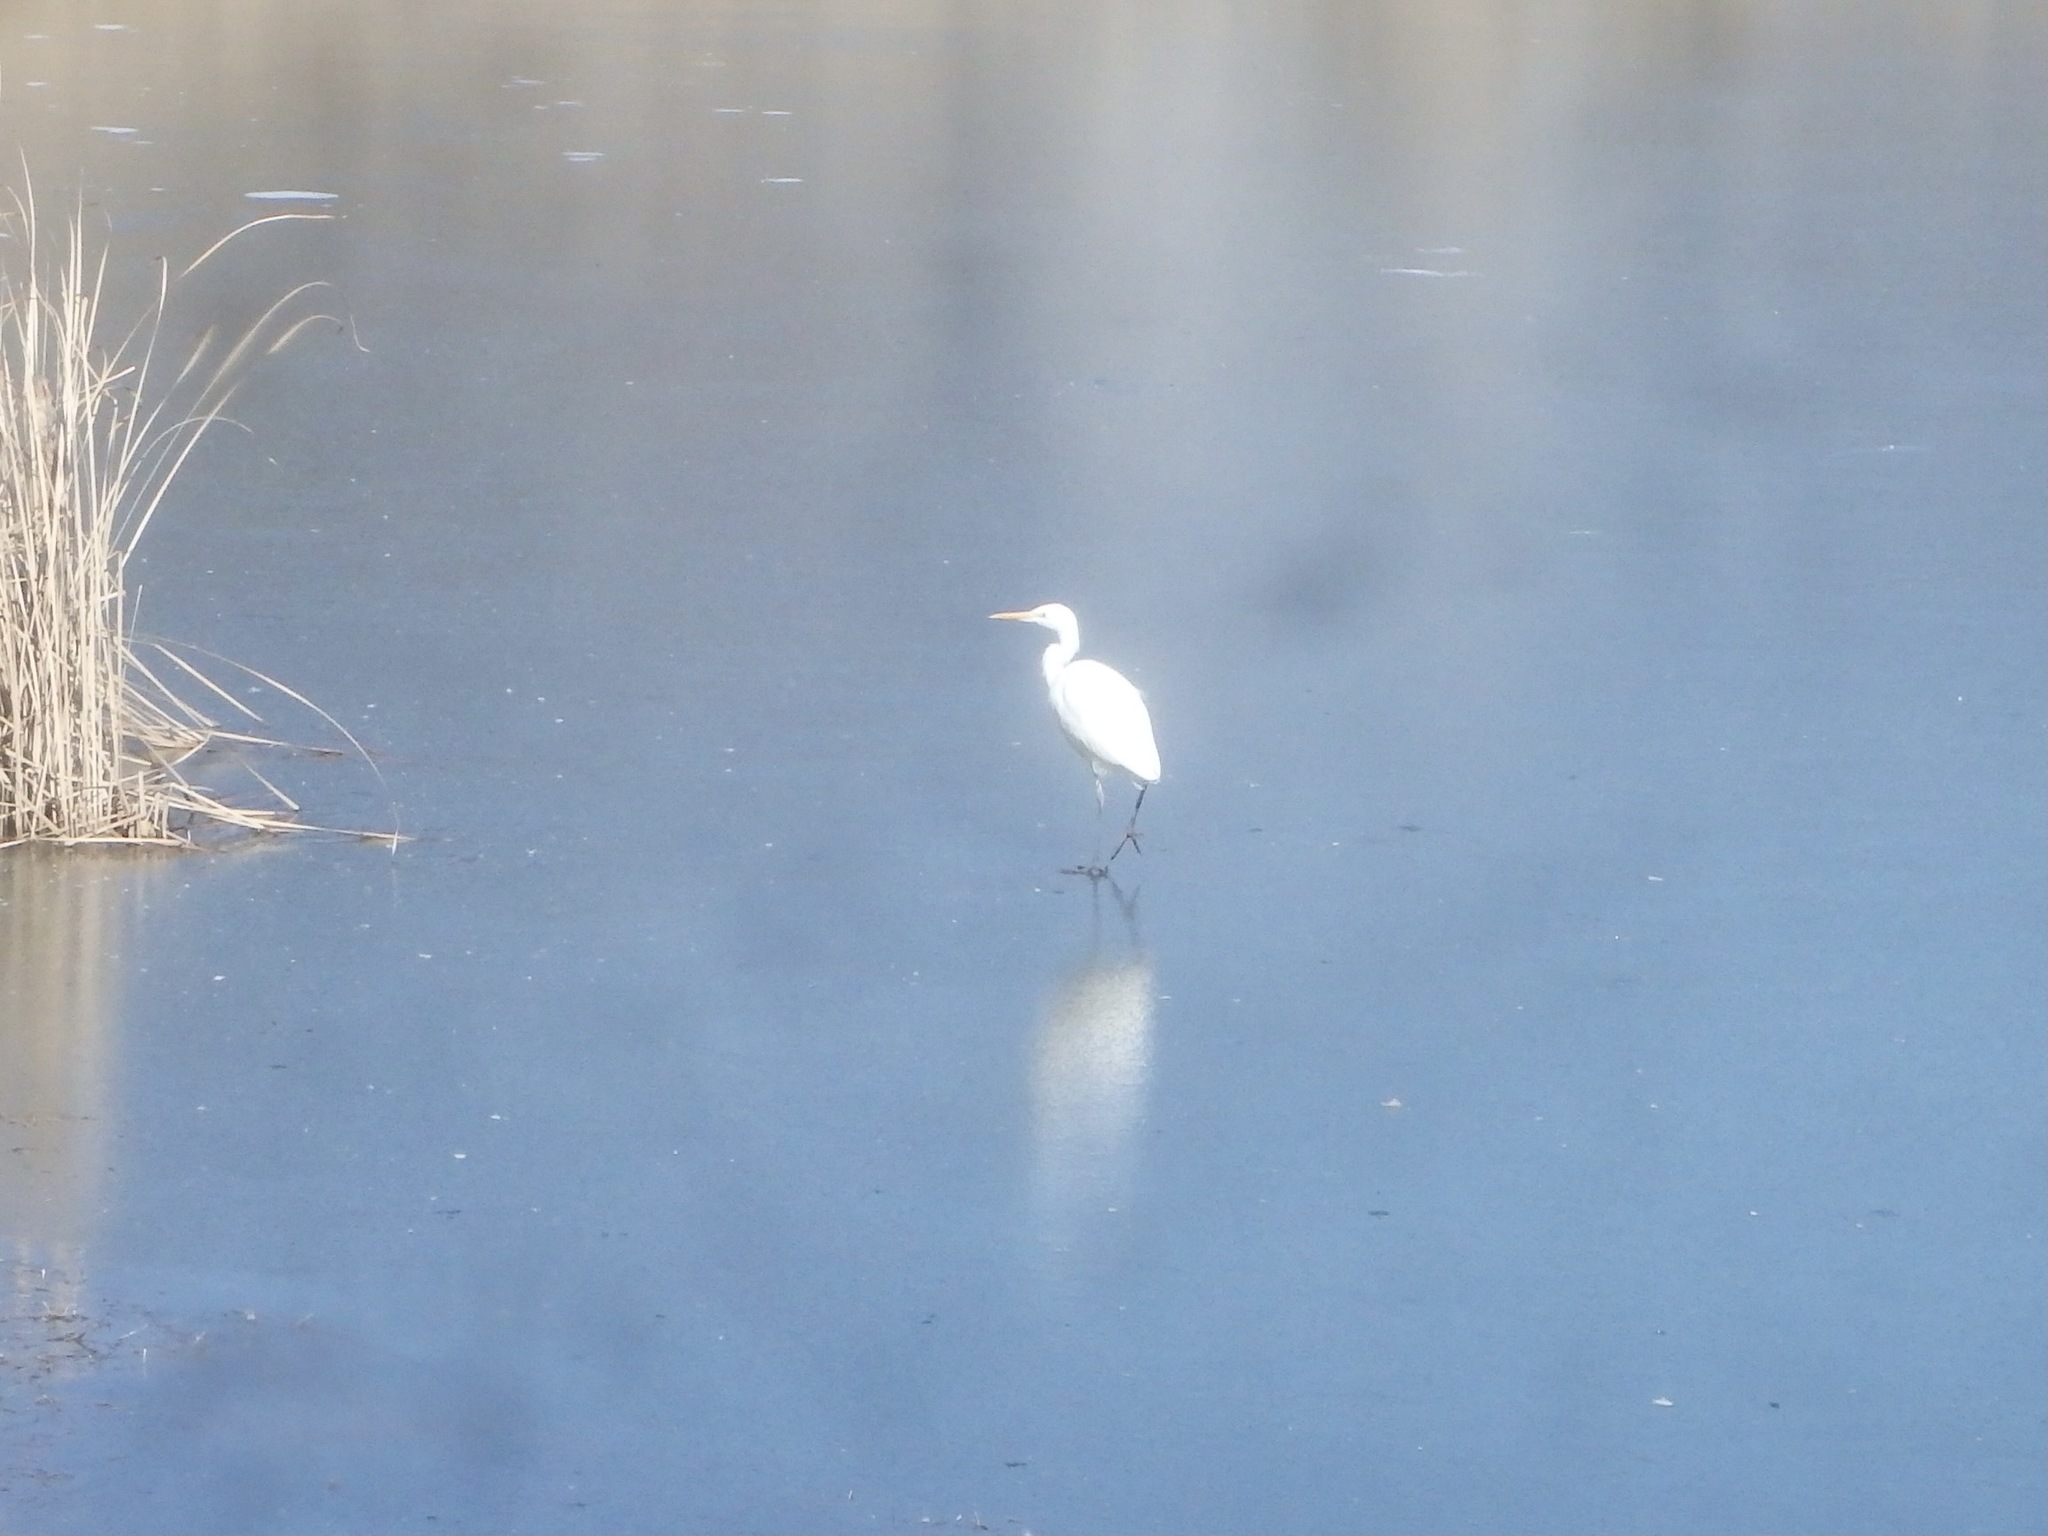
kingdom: Animalia
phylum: Chordata
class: Aves
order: Pelecaniformes
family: Ardeidae
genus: Ardea
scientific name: Ardea alba
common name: Great egret
